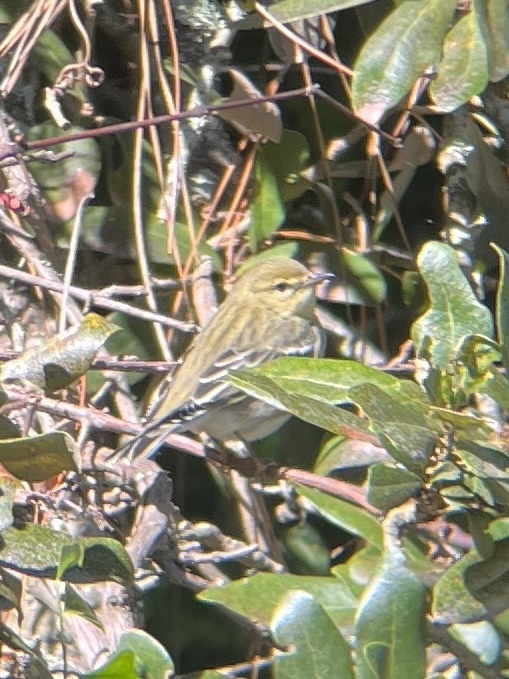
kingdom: Animalia
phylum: Chordata
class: Aves
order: Passeriformes
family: Parulidae
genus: Setophaga
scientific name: Setophaga striata
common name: Blackpoll warbler
